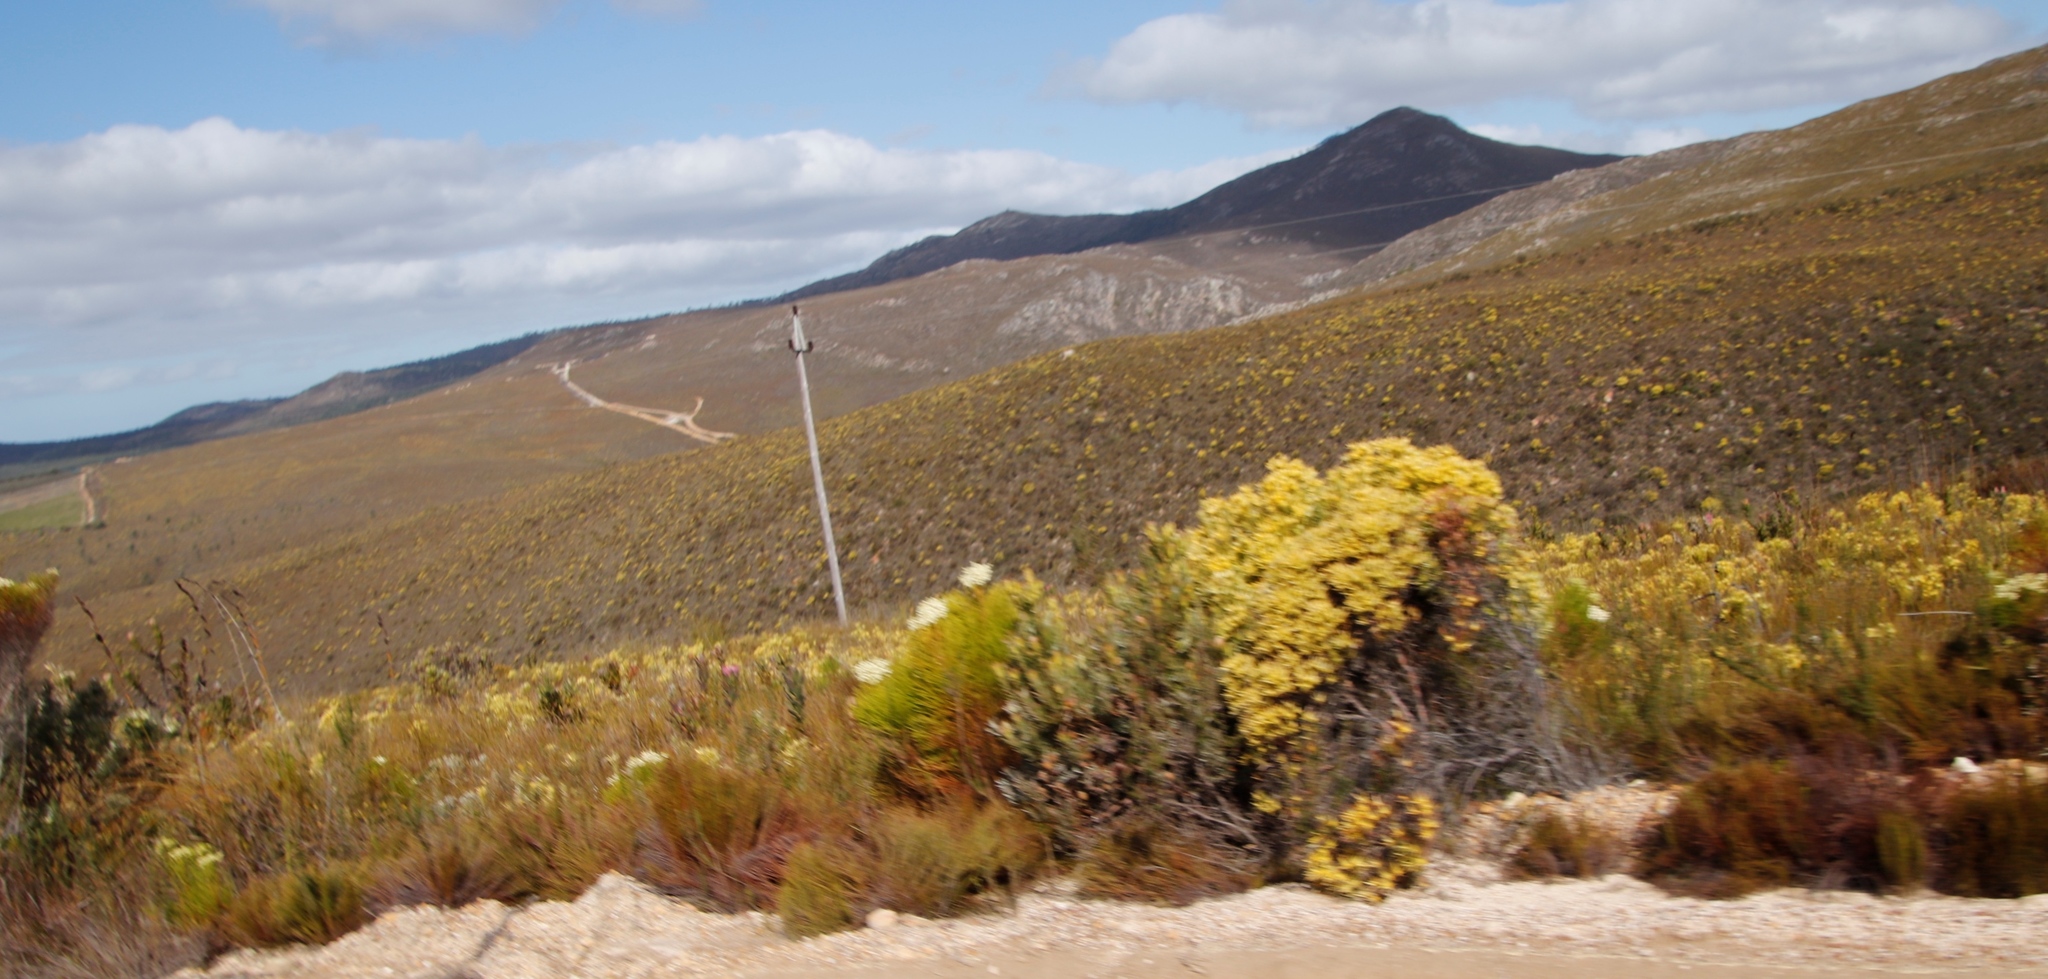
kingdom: Plantae
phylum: Tracheophyta
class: Magnoliopsida
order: Proteales
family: Proteaceae
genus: Leucadendron
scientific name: Leucadendron xanthoconus
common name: Sickle-leaf conebush
